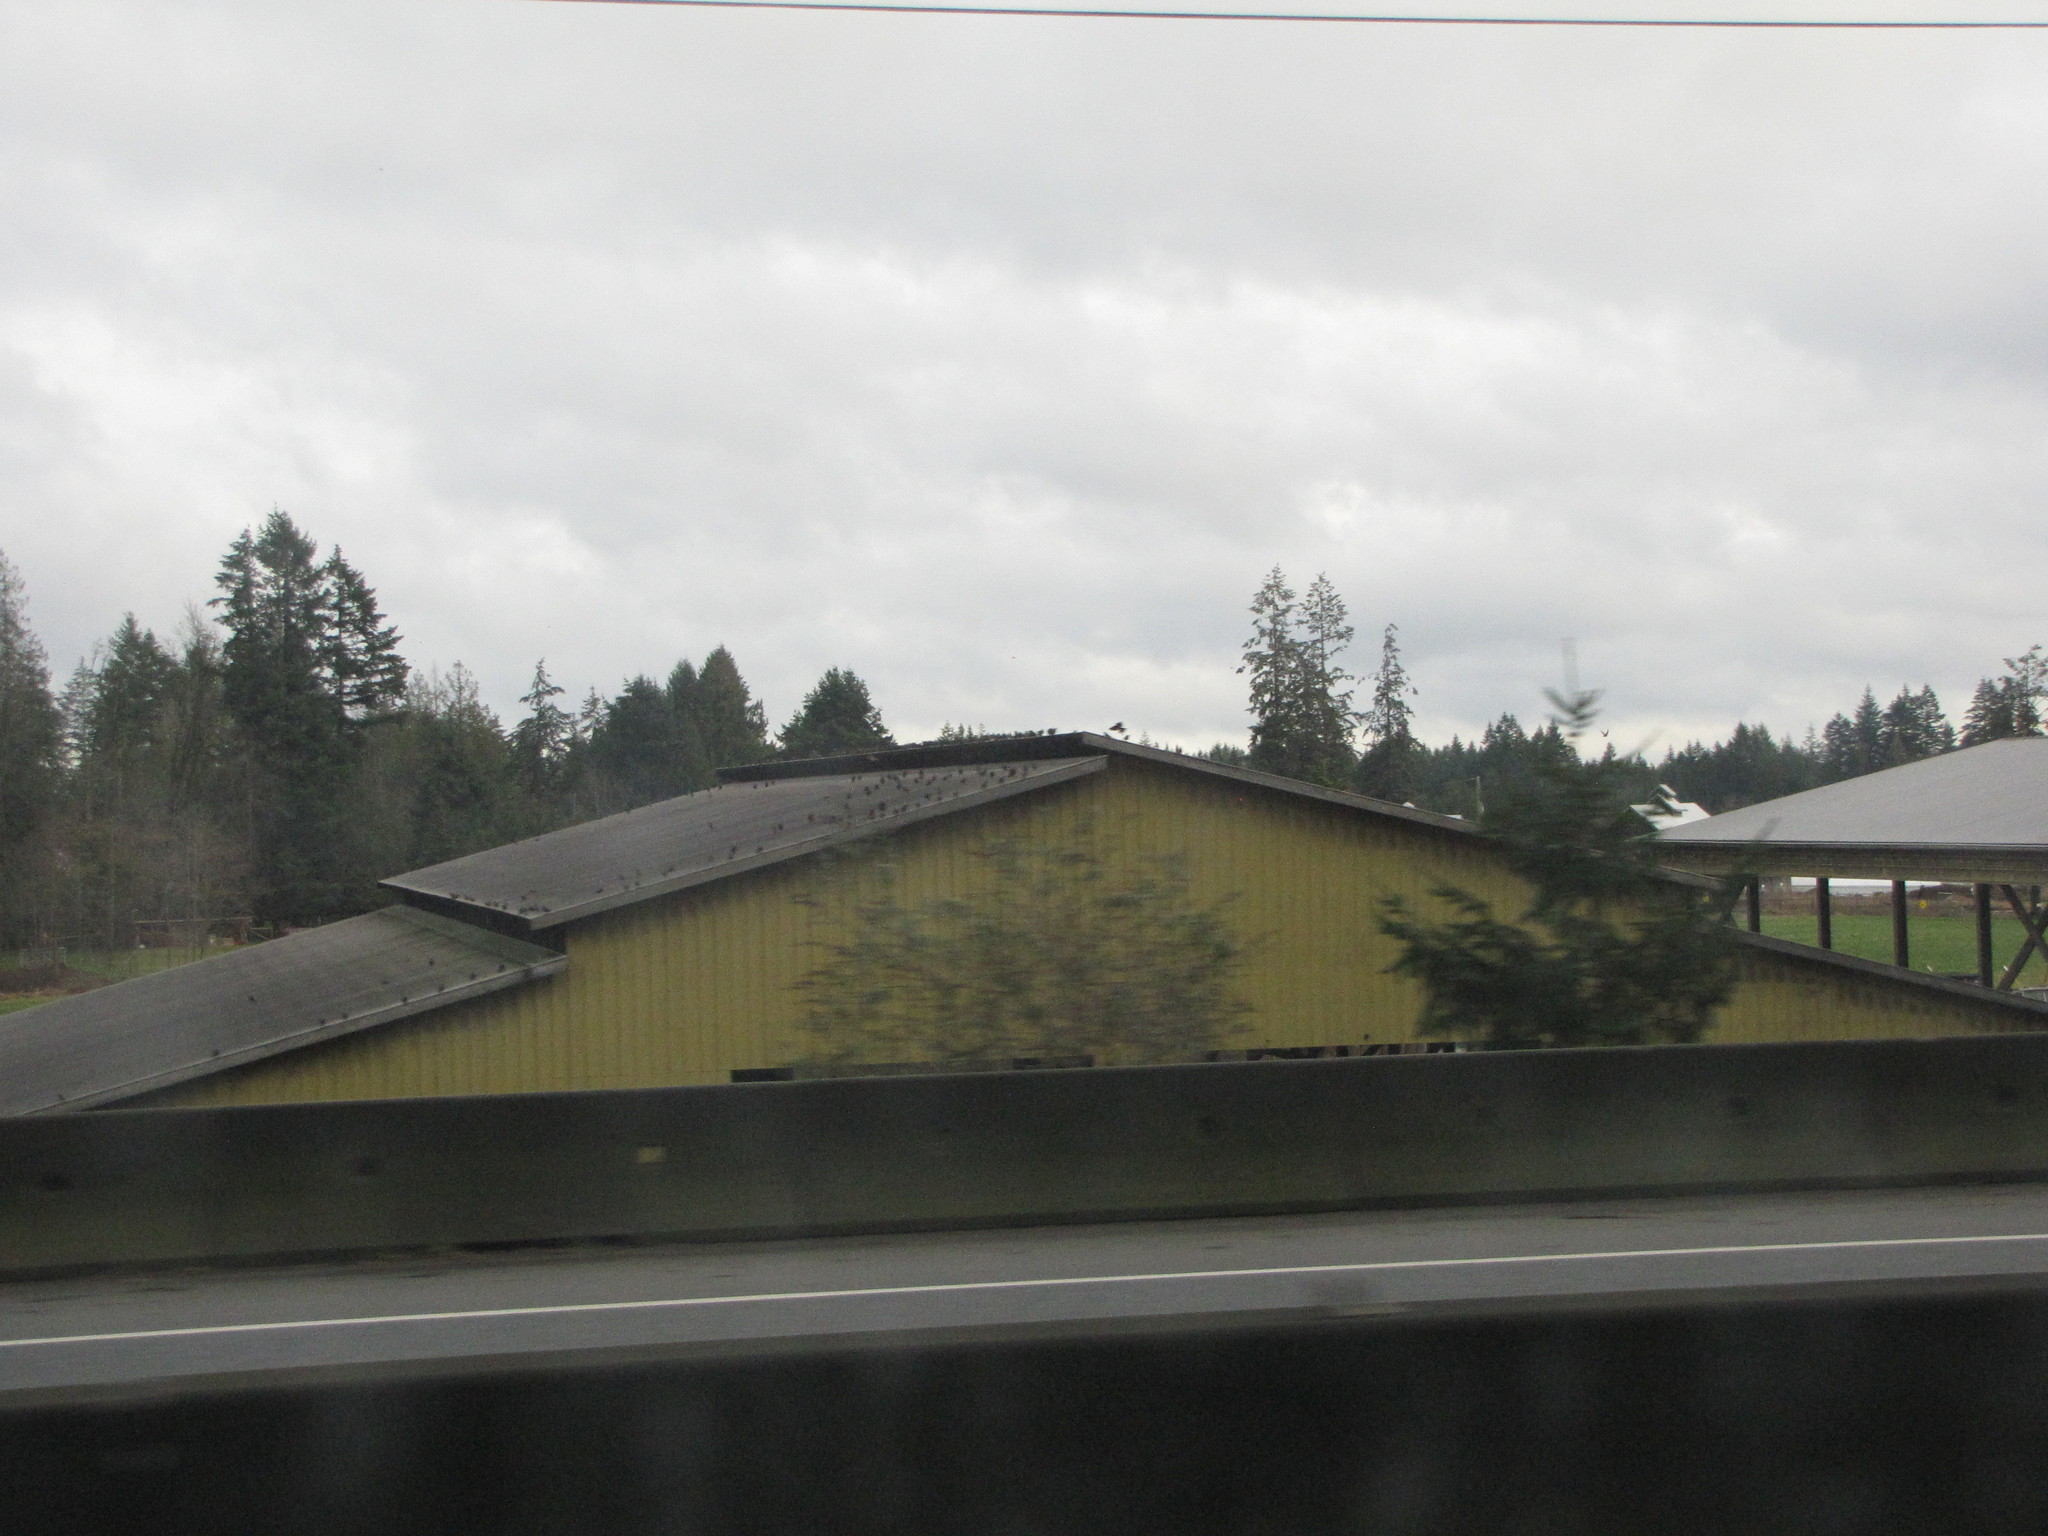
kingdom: Animalia
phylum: Chordata
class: Aves
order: Columbiformes
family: Columbidae
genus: Columba
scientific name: Columba livia
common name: Rock pigeon
